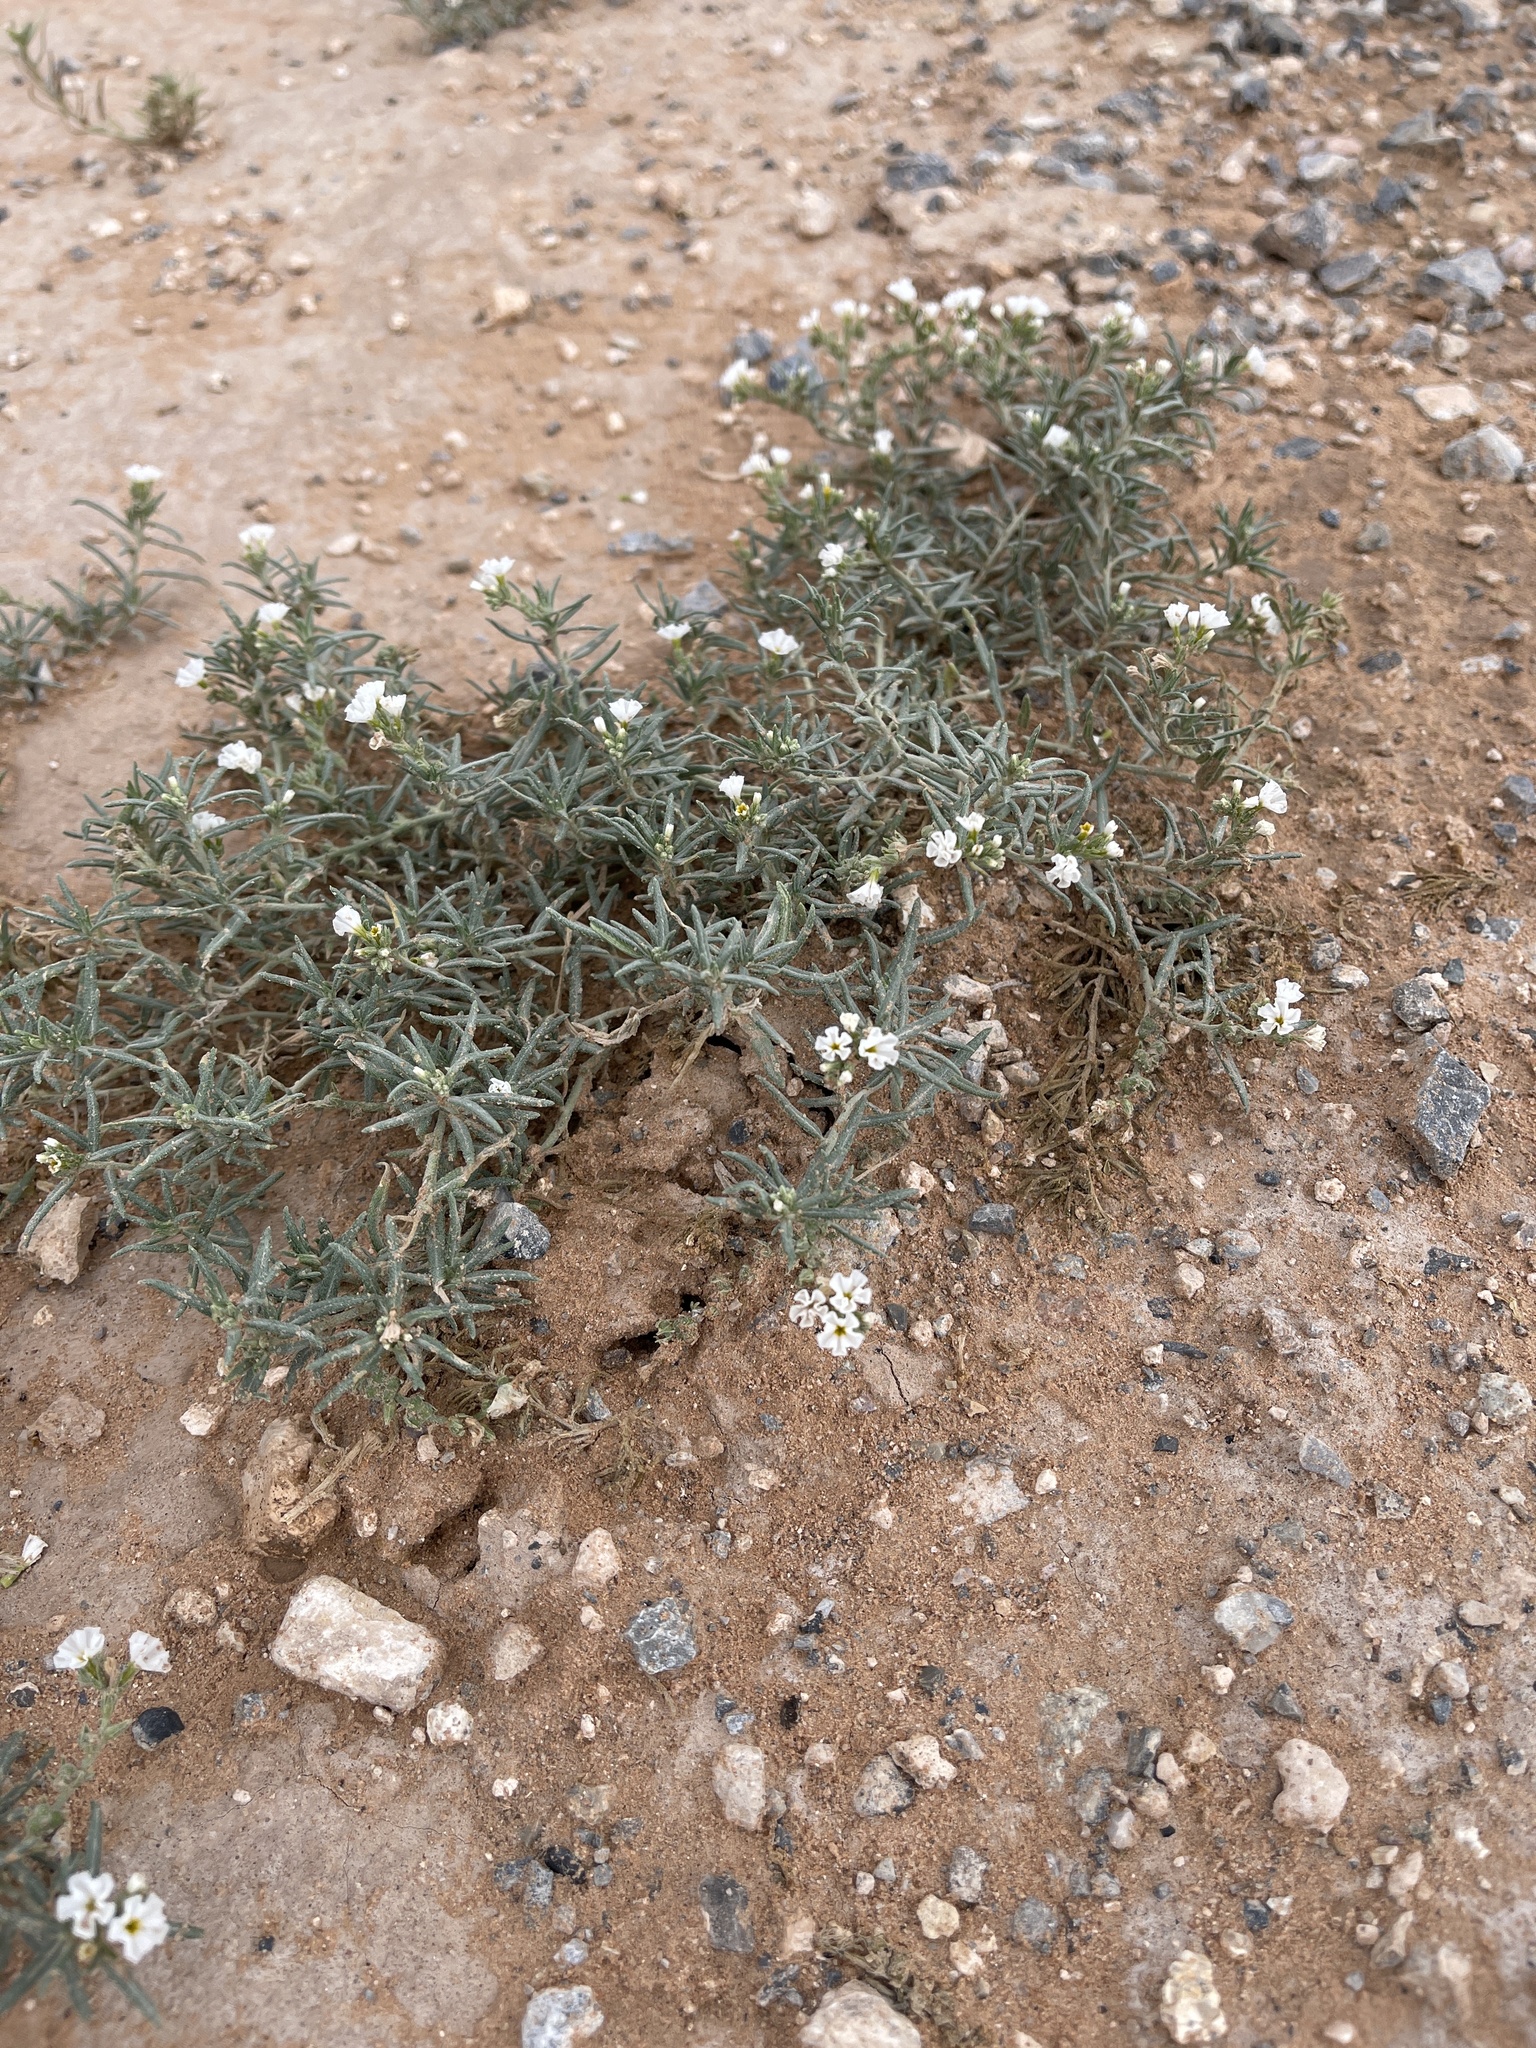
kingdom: Plantae
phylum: Tracheophyta
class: Magnoliopsida
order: Boraginales
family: Heliotropiaceae
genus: Euploca
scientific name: Euploca greggii
